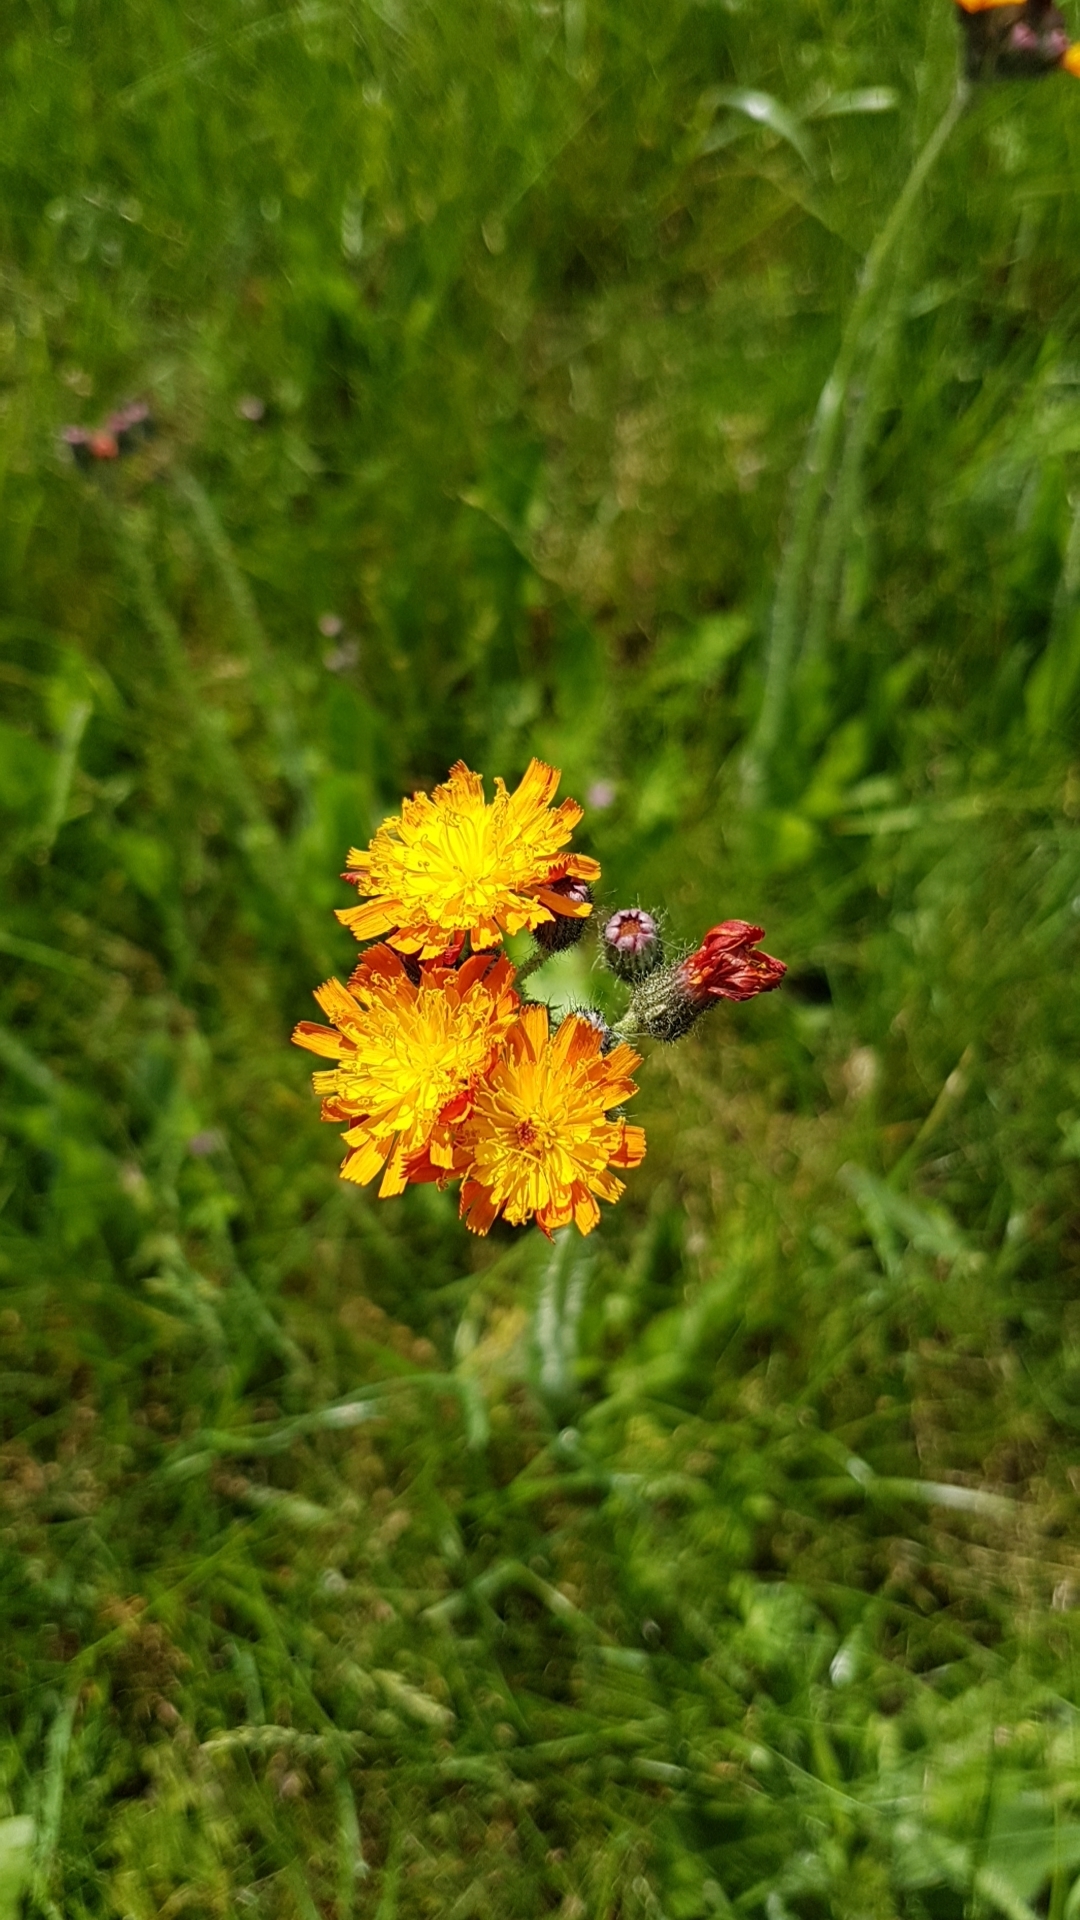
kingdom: Plantae
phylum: Tracheophyta
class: Magnoliopsida
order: Asterales
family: Asteraceae
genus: Pilosella
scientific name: Pilosella aurantiaca
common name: Fox-and-cubs
